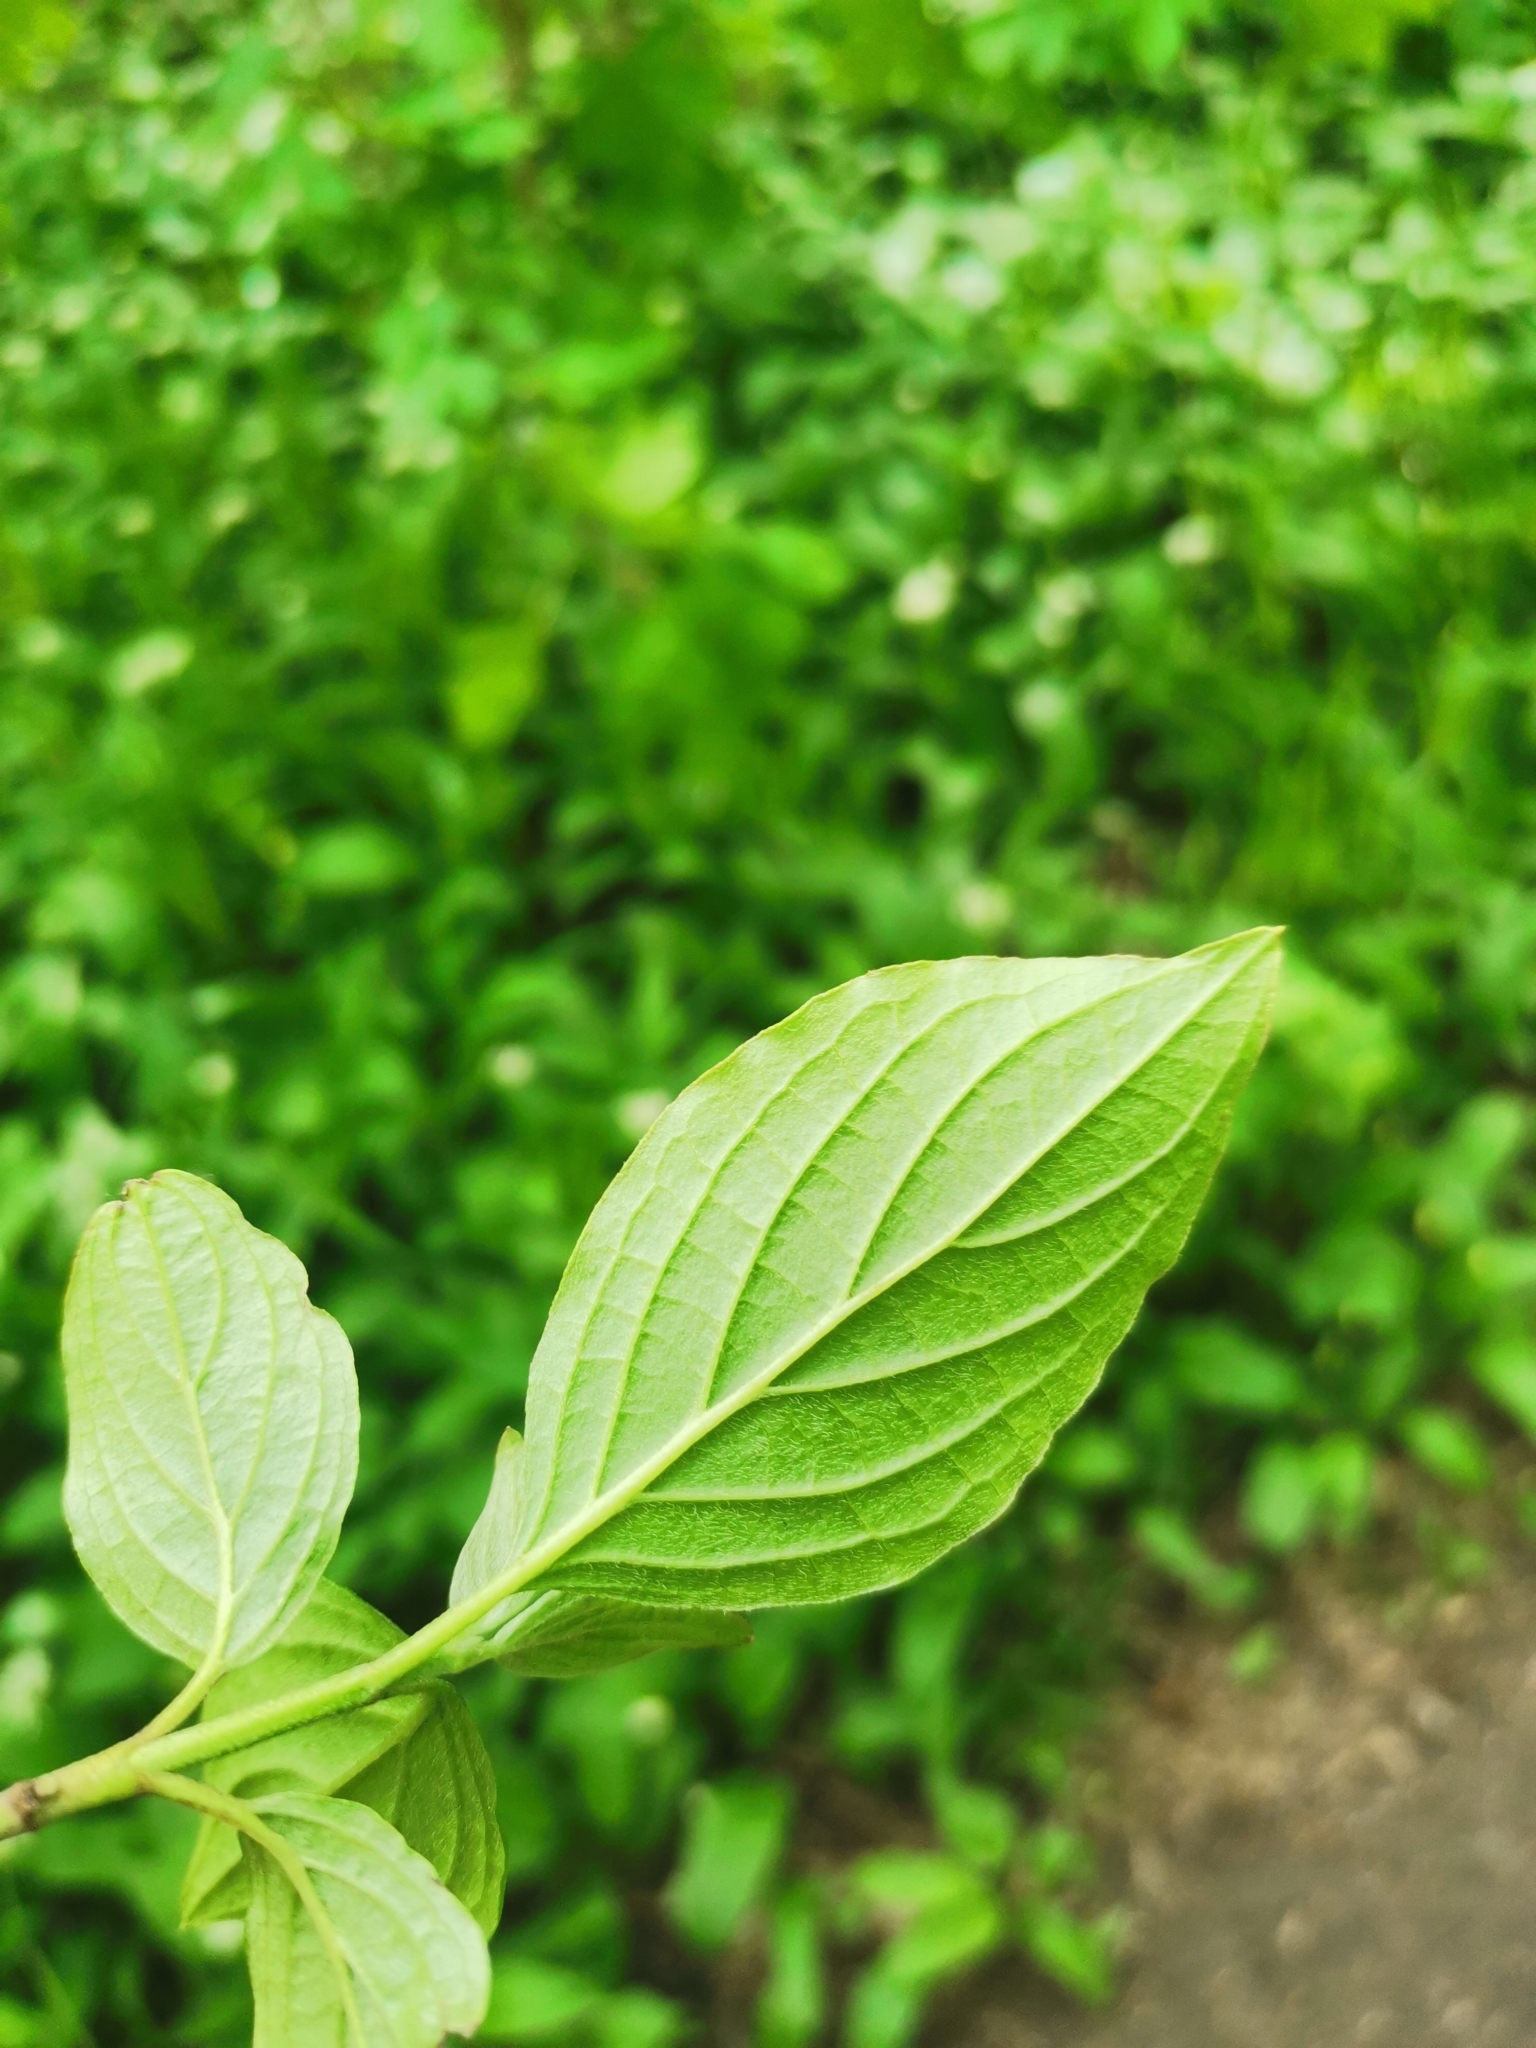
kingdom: Plantae
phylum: Tracheophyta
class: Magnoliopsida
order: Cornales
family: Cornaceae
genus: Cornus
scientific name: Cornus sanguinea
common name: Dogwood
